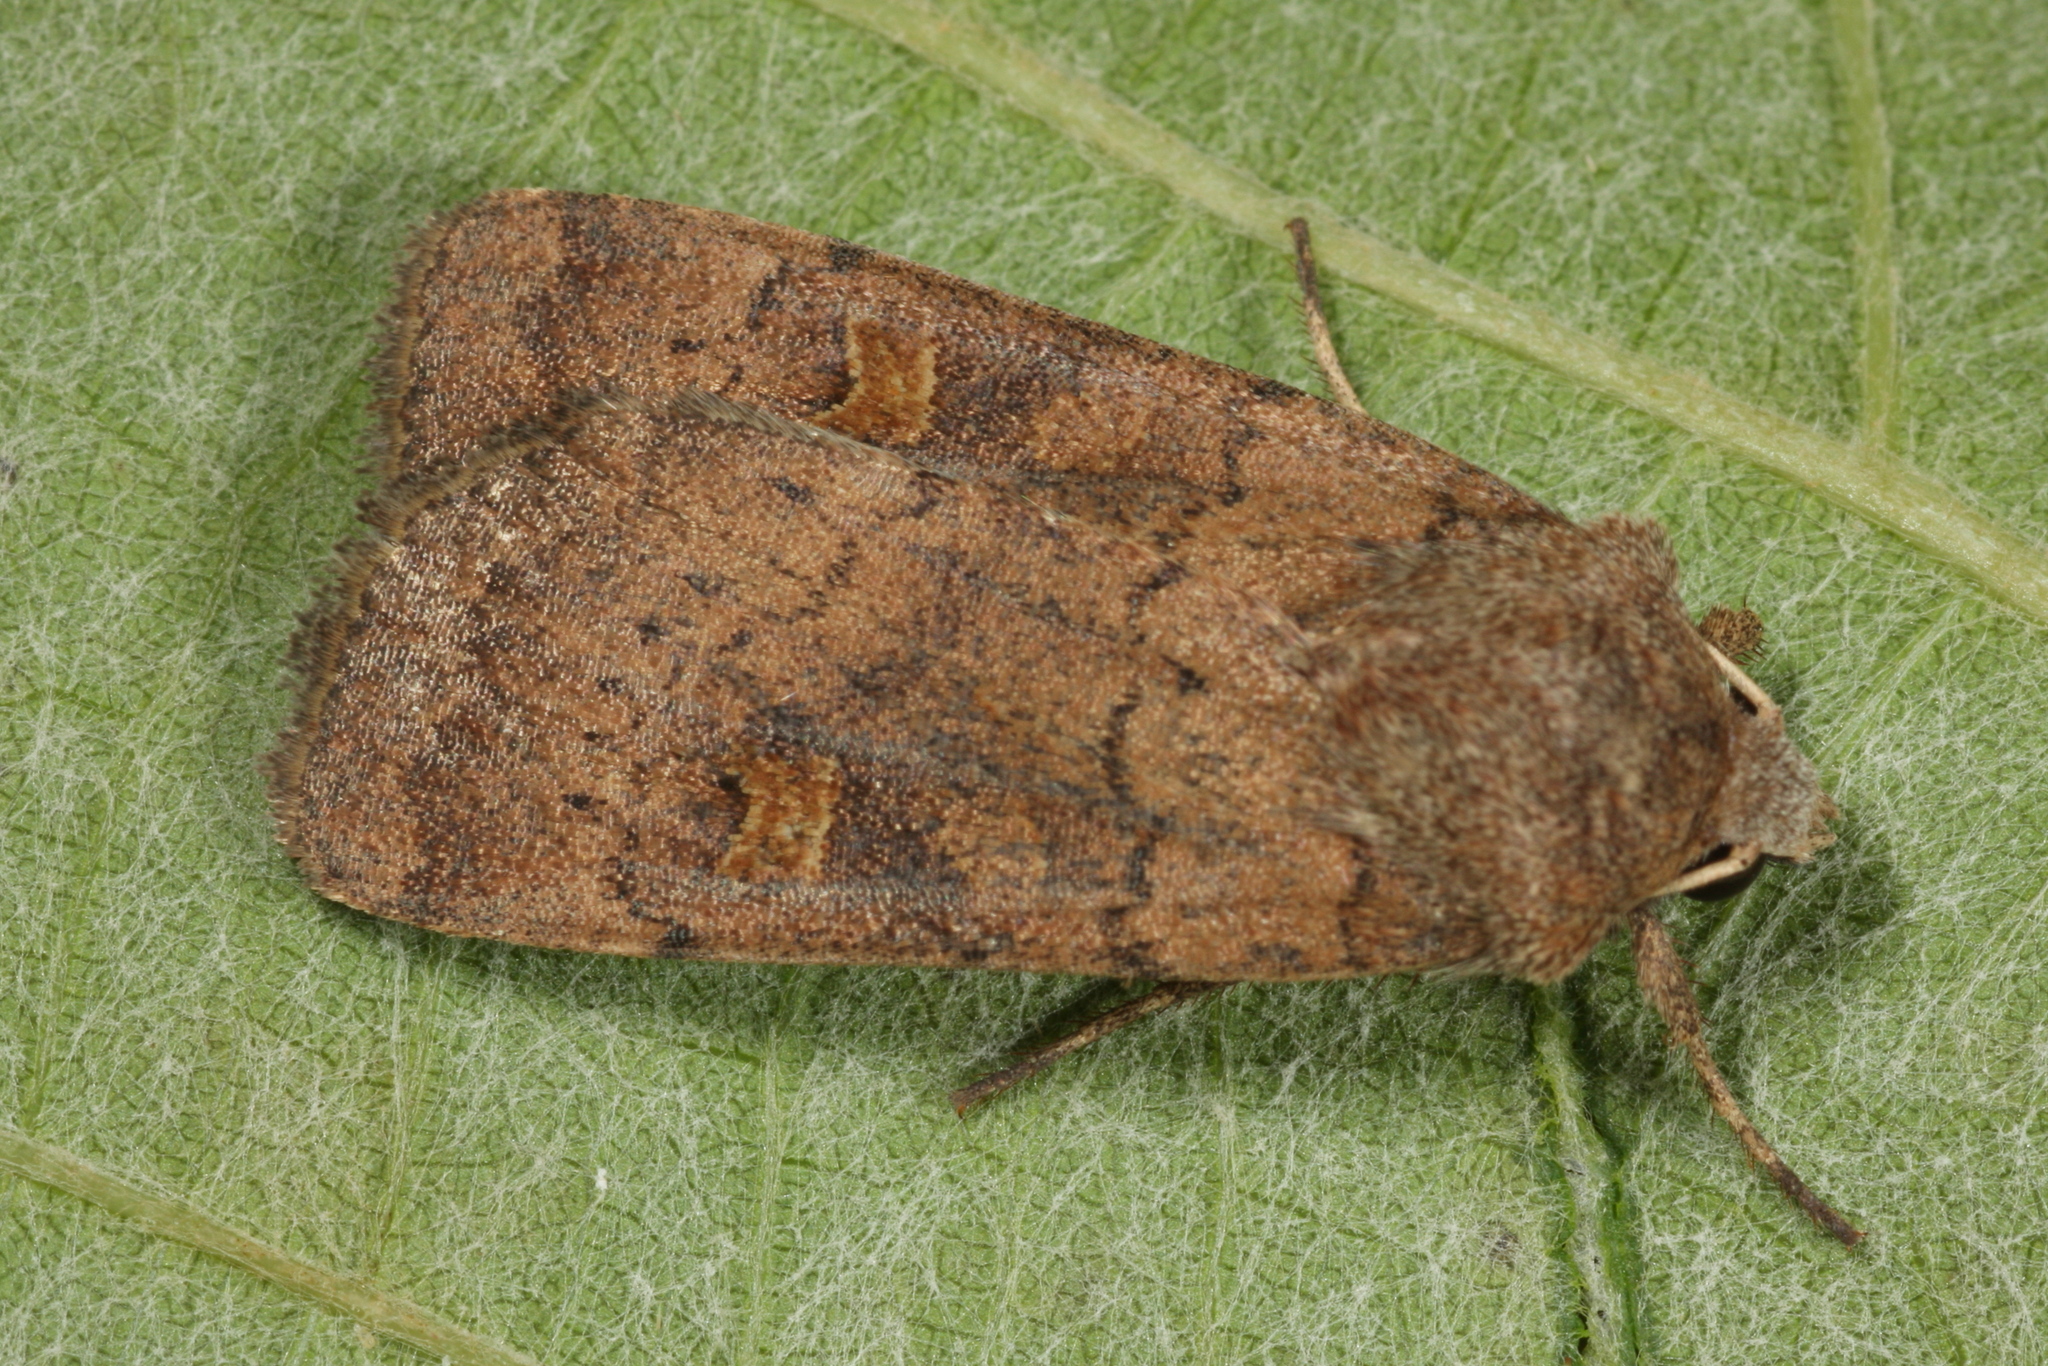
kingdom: Animalia
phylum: Arthropoda
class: Insecta
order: Lepidoptera
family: Noctuidae
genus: Xestia
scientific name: Xestia xanthographa
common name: Square-spot rustic
